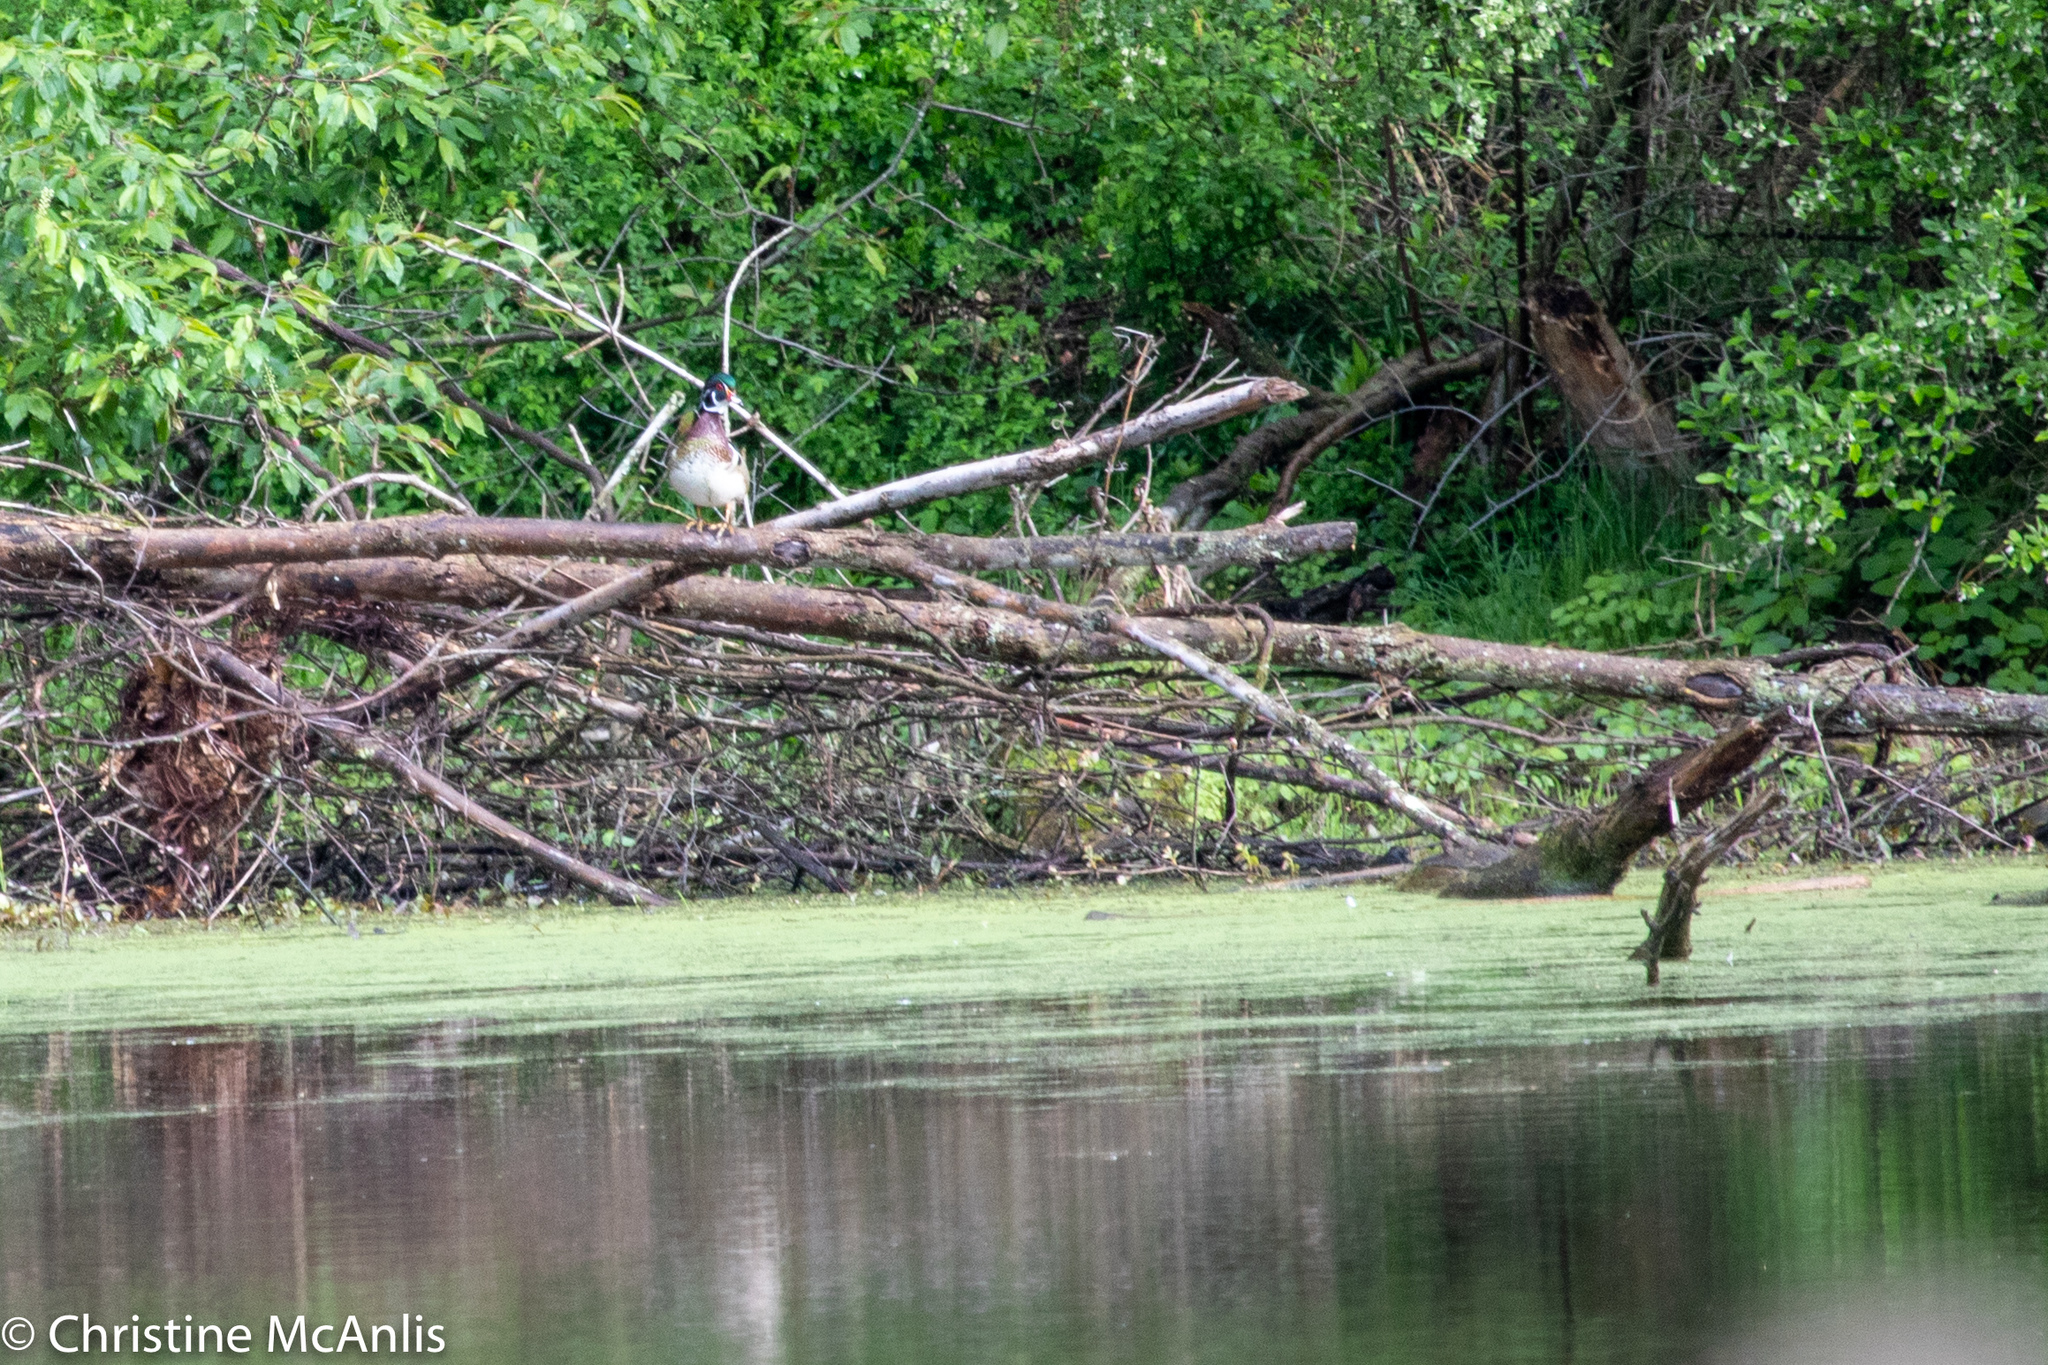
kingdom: Animalia
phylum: Chordata
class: Aves
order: Anseriformes
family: Anatidae
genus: Aix
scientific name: Aix sponsa
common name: Wood duck
